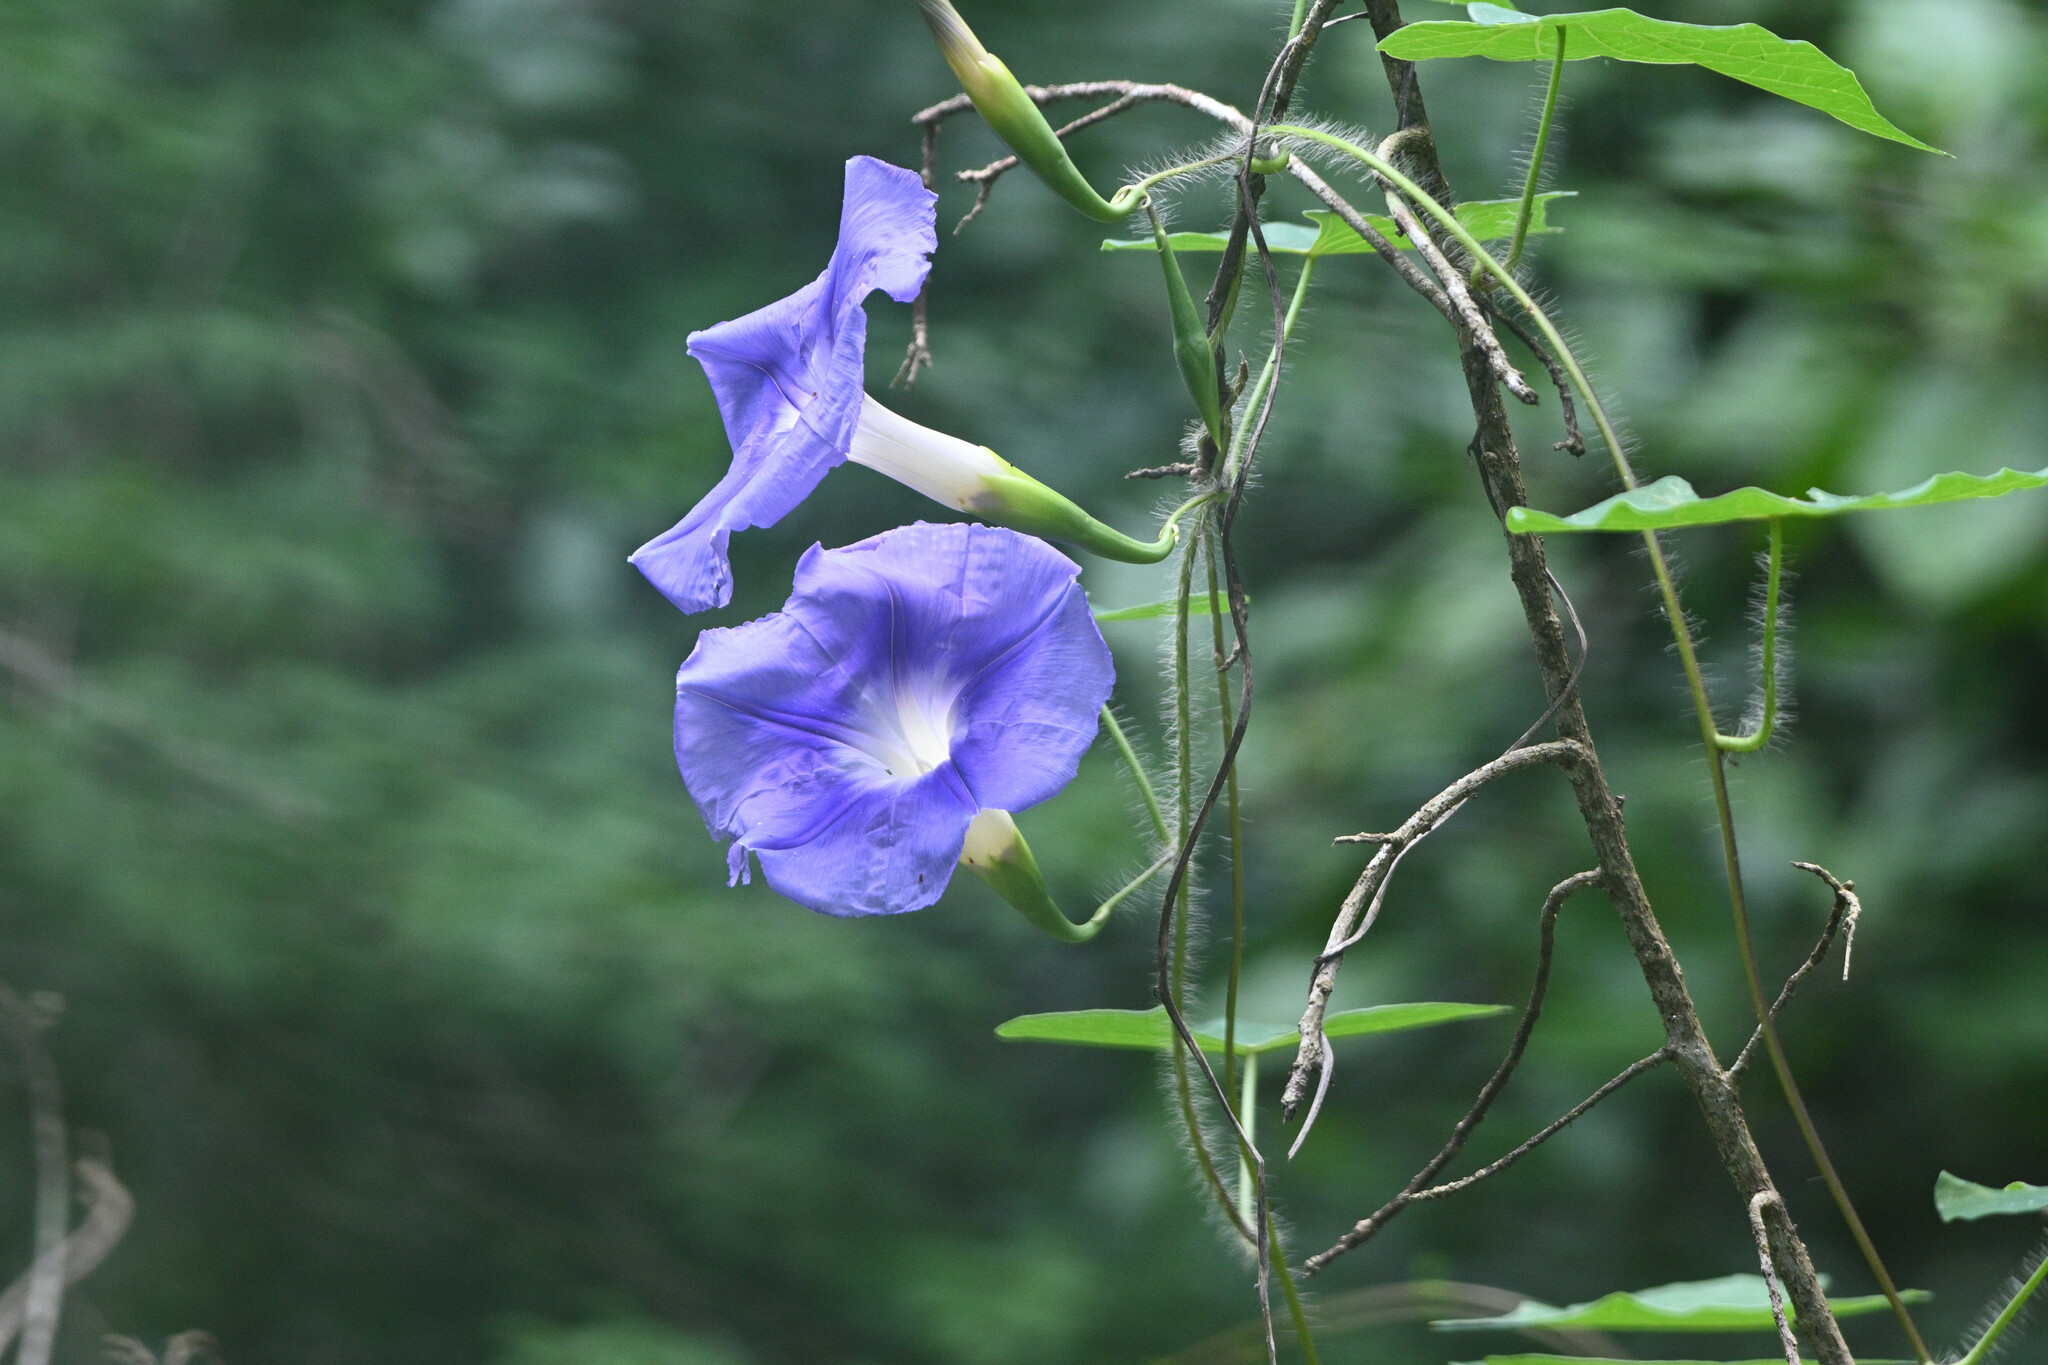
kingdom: Plantae
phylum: Tracheophyta
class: Magnoliopsida
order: Solanales
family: Convolvulaceae
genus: Ipomoea
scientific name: Ipomoea clavata
